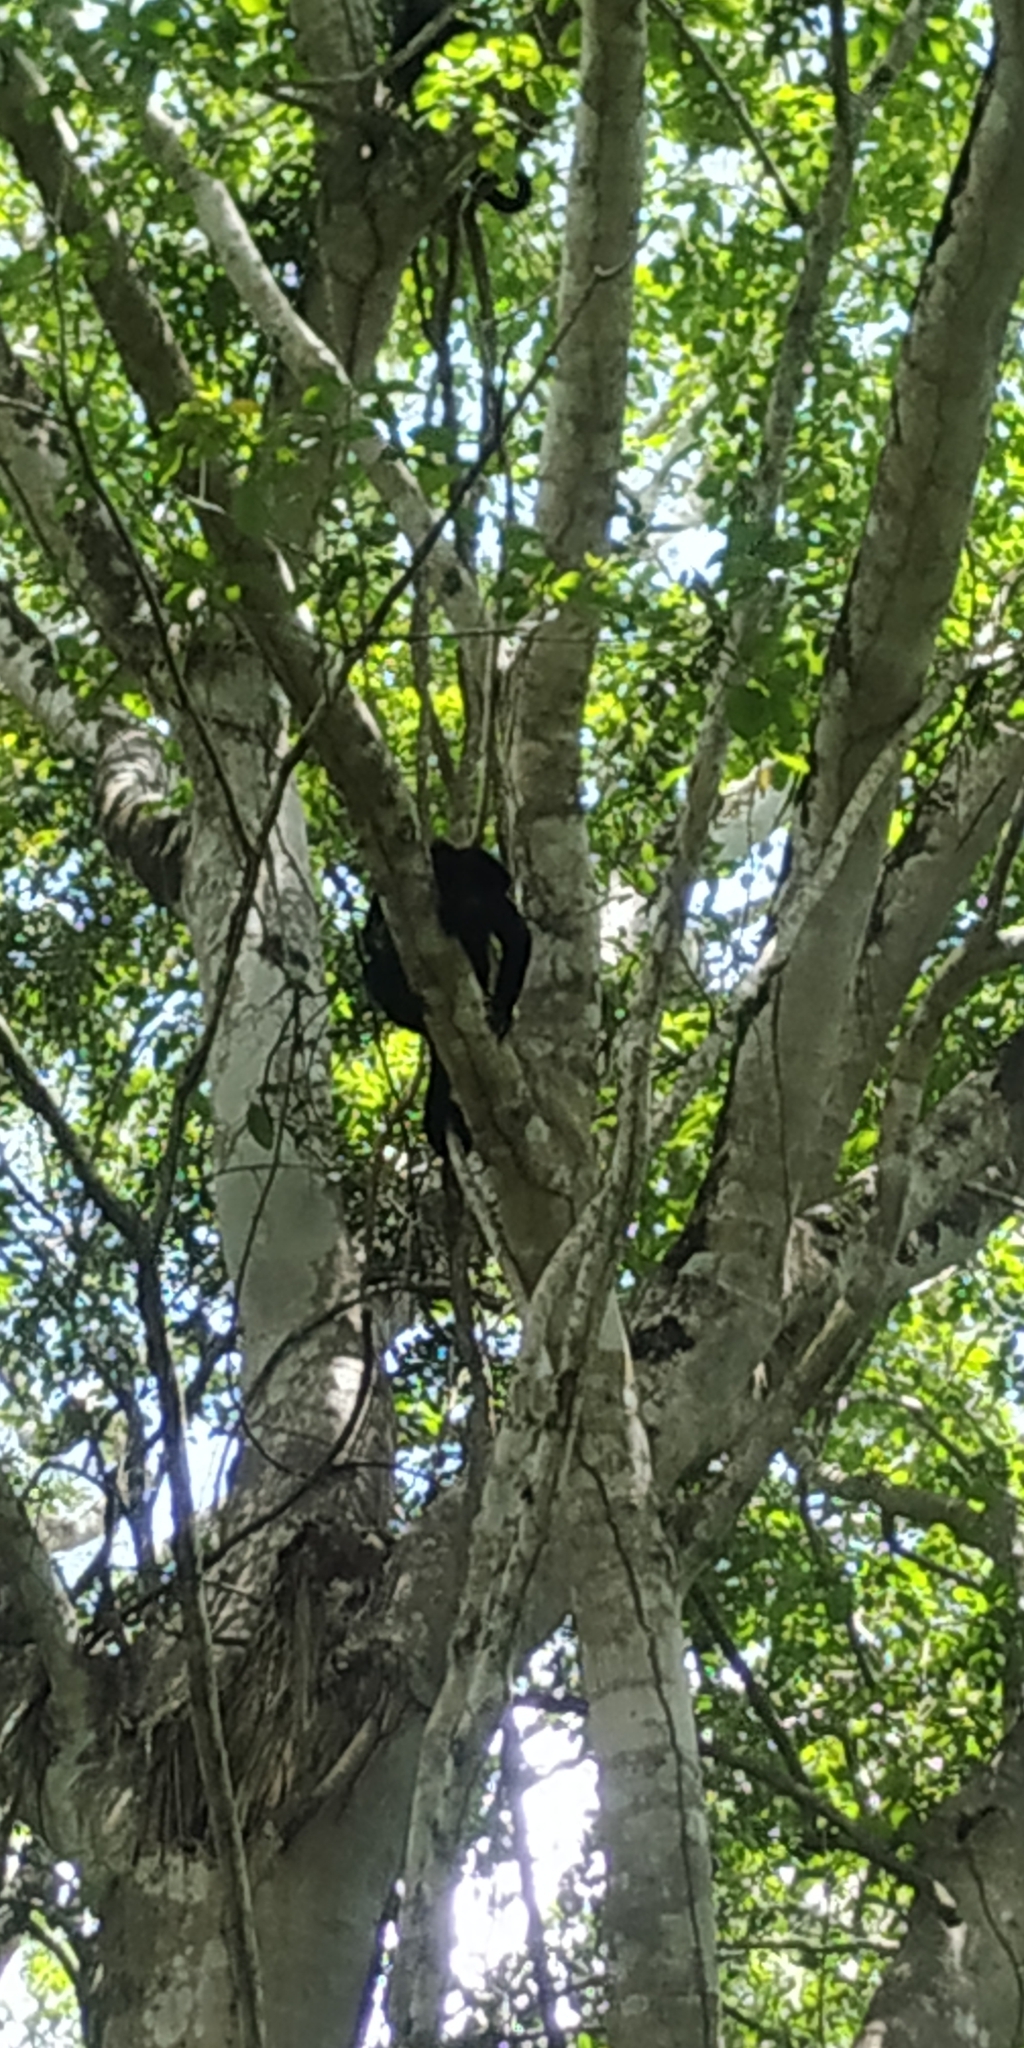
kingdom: Animalia
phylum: Chordata
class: Mammalia
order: Primates
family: Atelidae
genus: Alouatta
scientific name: Alouatta pigra
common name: Guatemalan black howler
